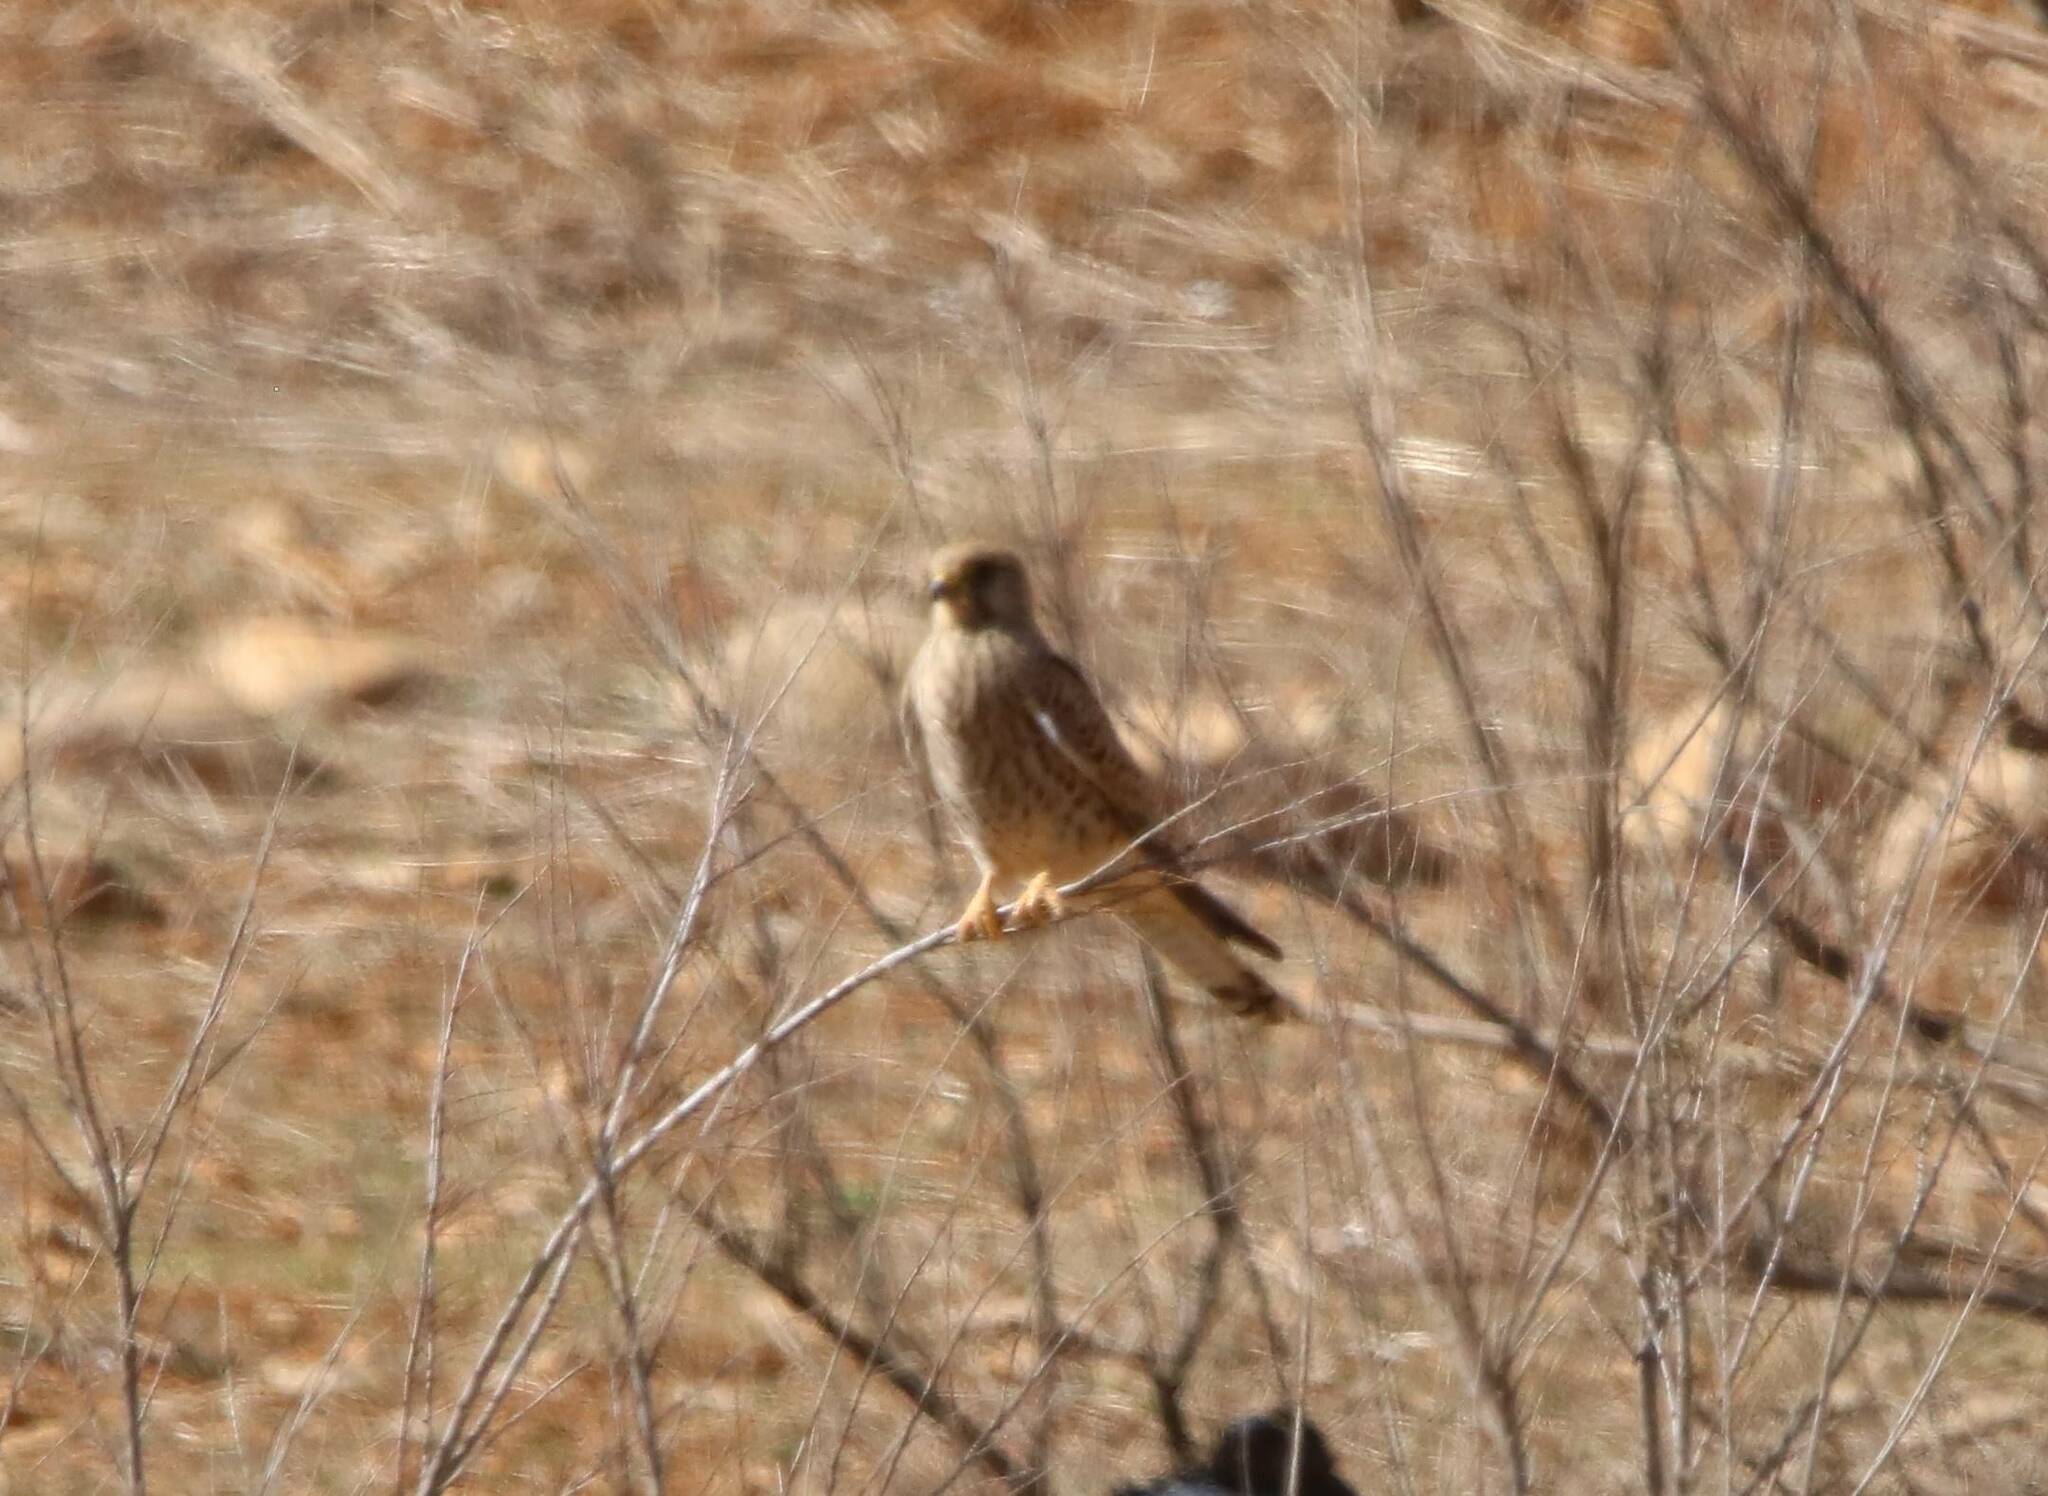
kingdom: Animalia
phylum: Chordata
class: Aves
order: Falconiformes
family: Falconidae
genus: Falco
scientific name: Falco tinnunculus
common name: Common kestrel
